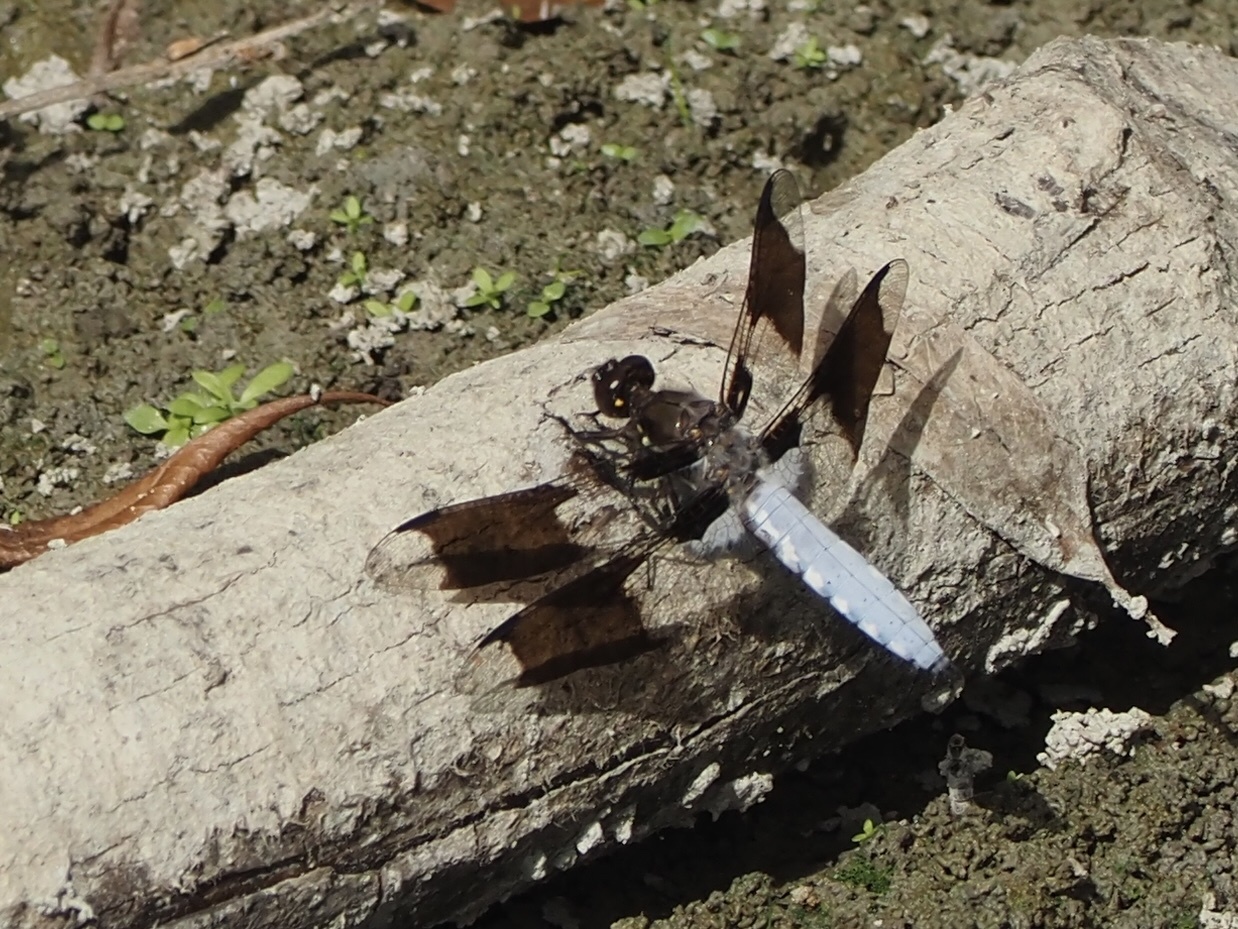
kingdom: Animalia
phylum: Arthropoda
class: Insecta
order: Odonata
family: Libellulidae
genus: Plathemis
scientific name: Plathemis lydia
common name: Common whitetail
